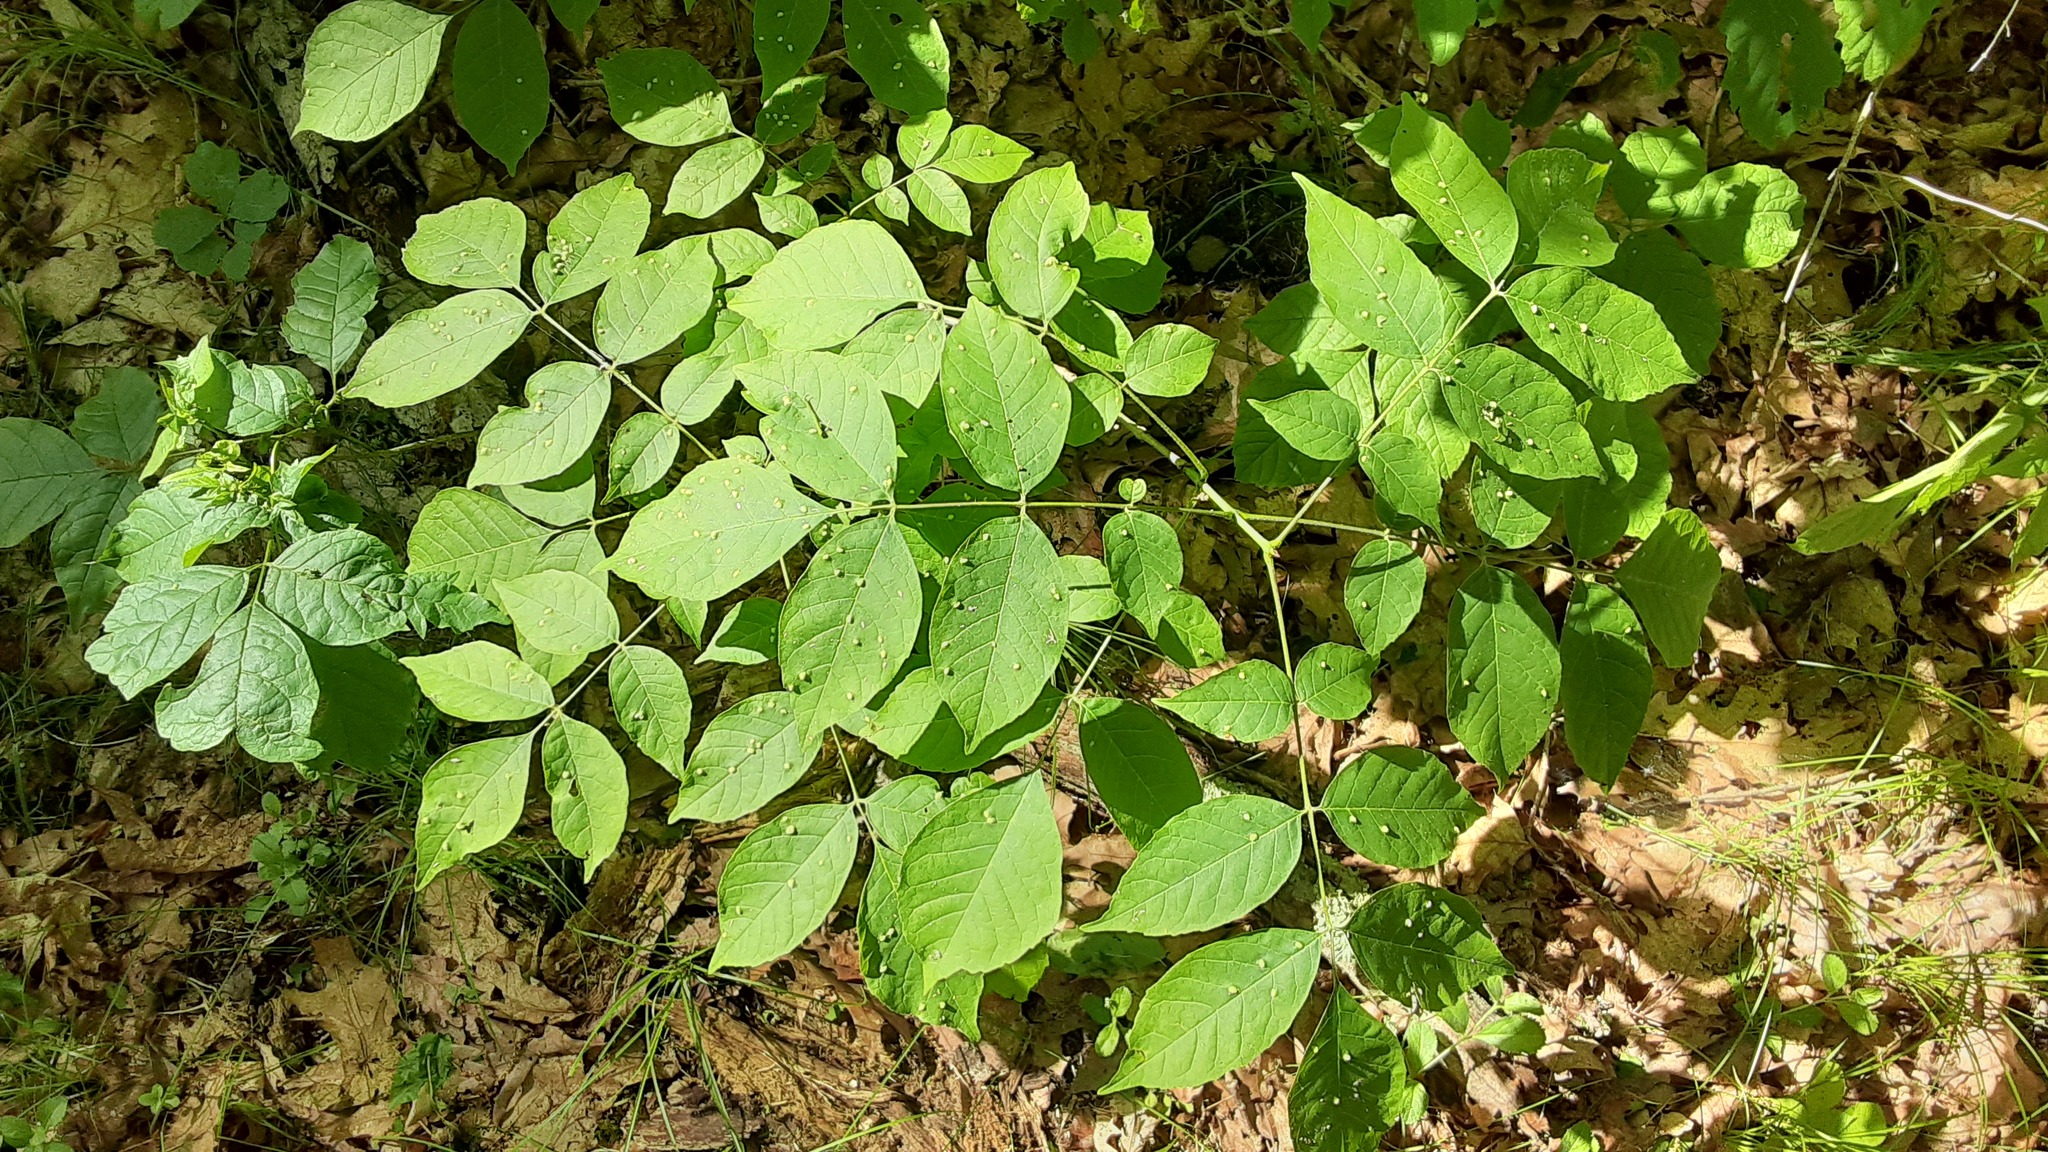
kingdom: Plantae
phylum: Tracheophyta
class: Magnoliopsida
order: Lamiales
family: Oleaceae
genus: Fraxinus
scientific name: Fraxinus americana
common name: White ash
